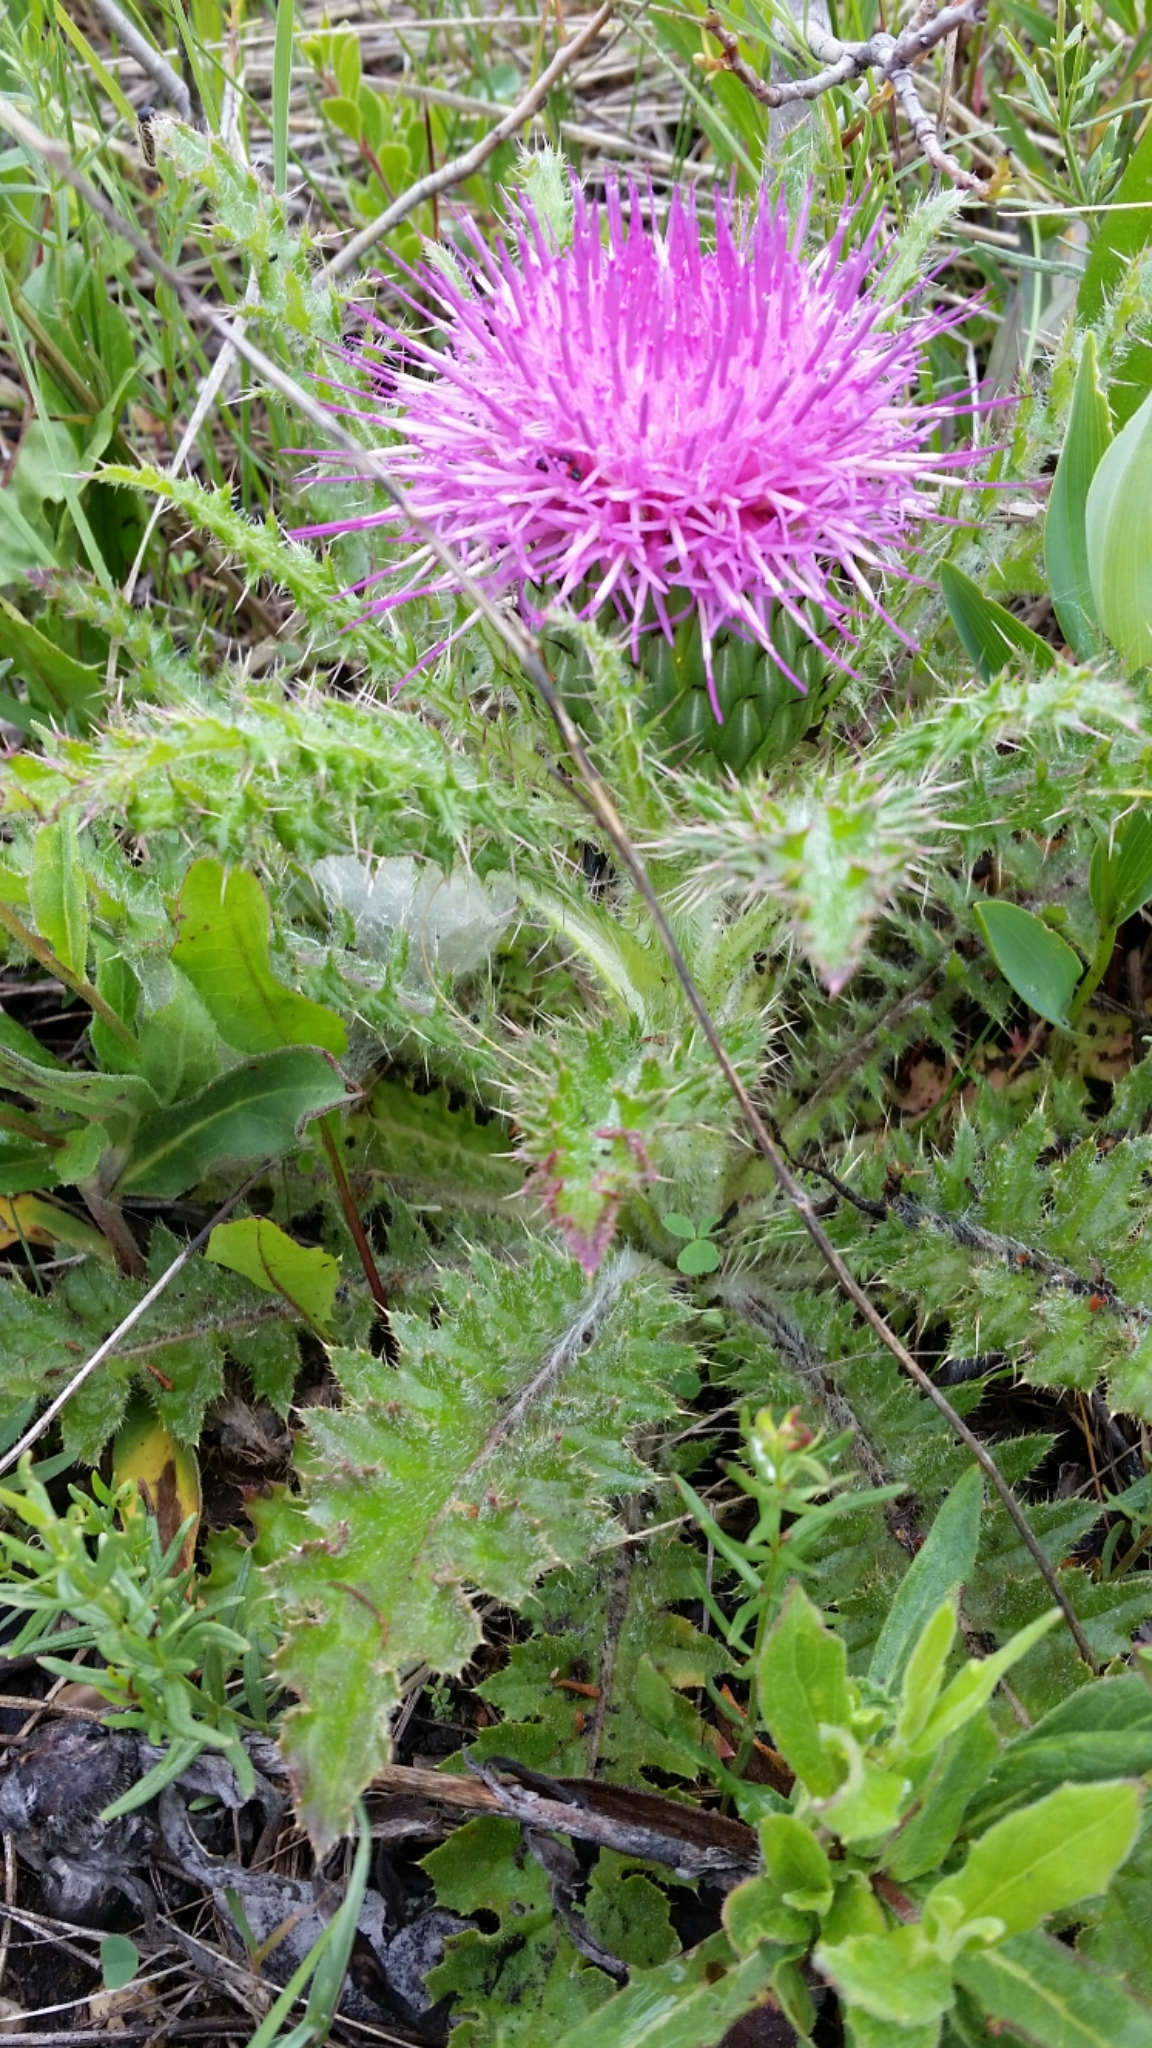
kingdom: Plantae
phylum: Tracheophyta
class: Magnoliopsida
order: Asterales
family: Asteraceae
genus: Cirsium
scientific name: Cirsium drummondii
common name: Drummond's thistle
